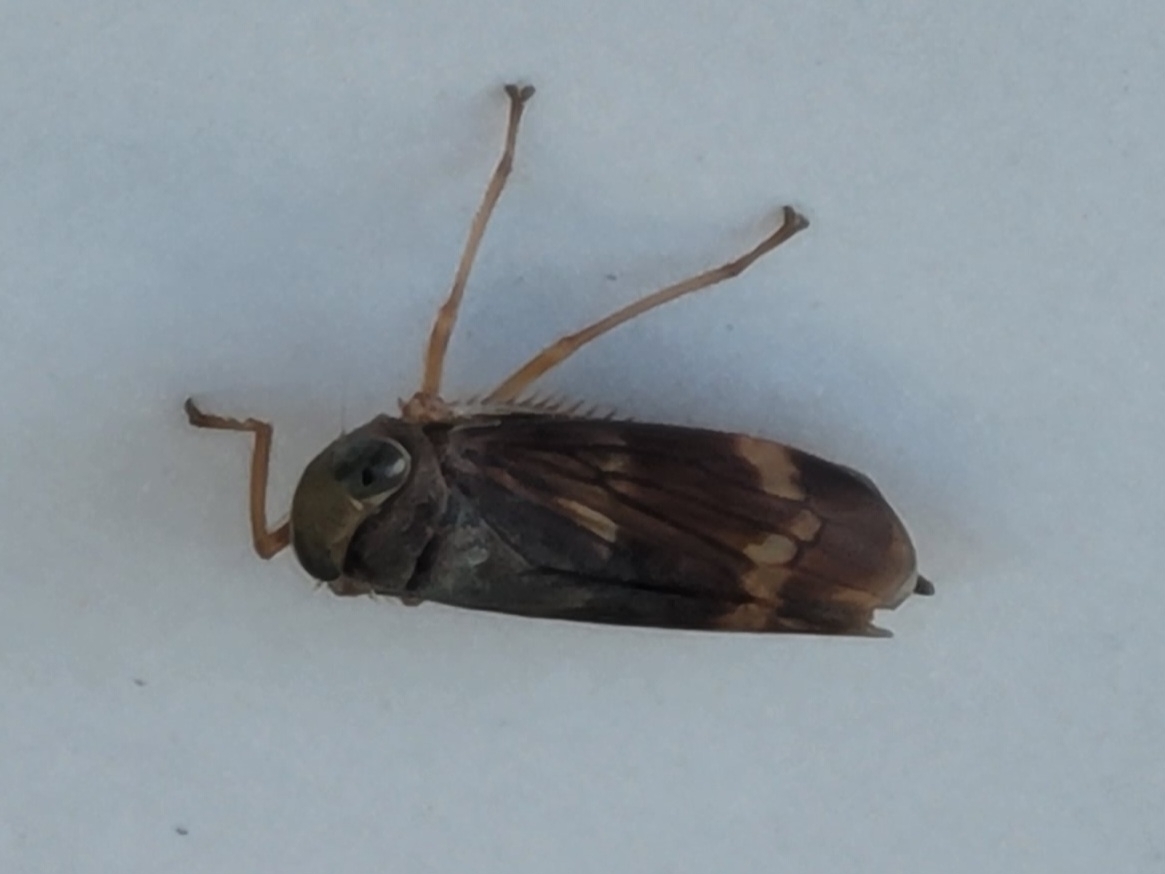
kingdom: Animalia
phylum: Arthropoda
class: Insecta
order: Hemiptera
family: Cicadellidae
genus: Jikradia
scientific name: Jikradia olitoria
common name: Coppery leafhopper
